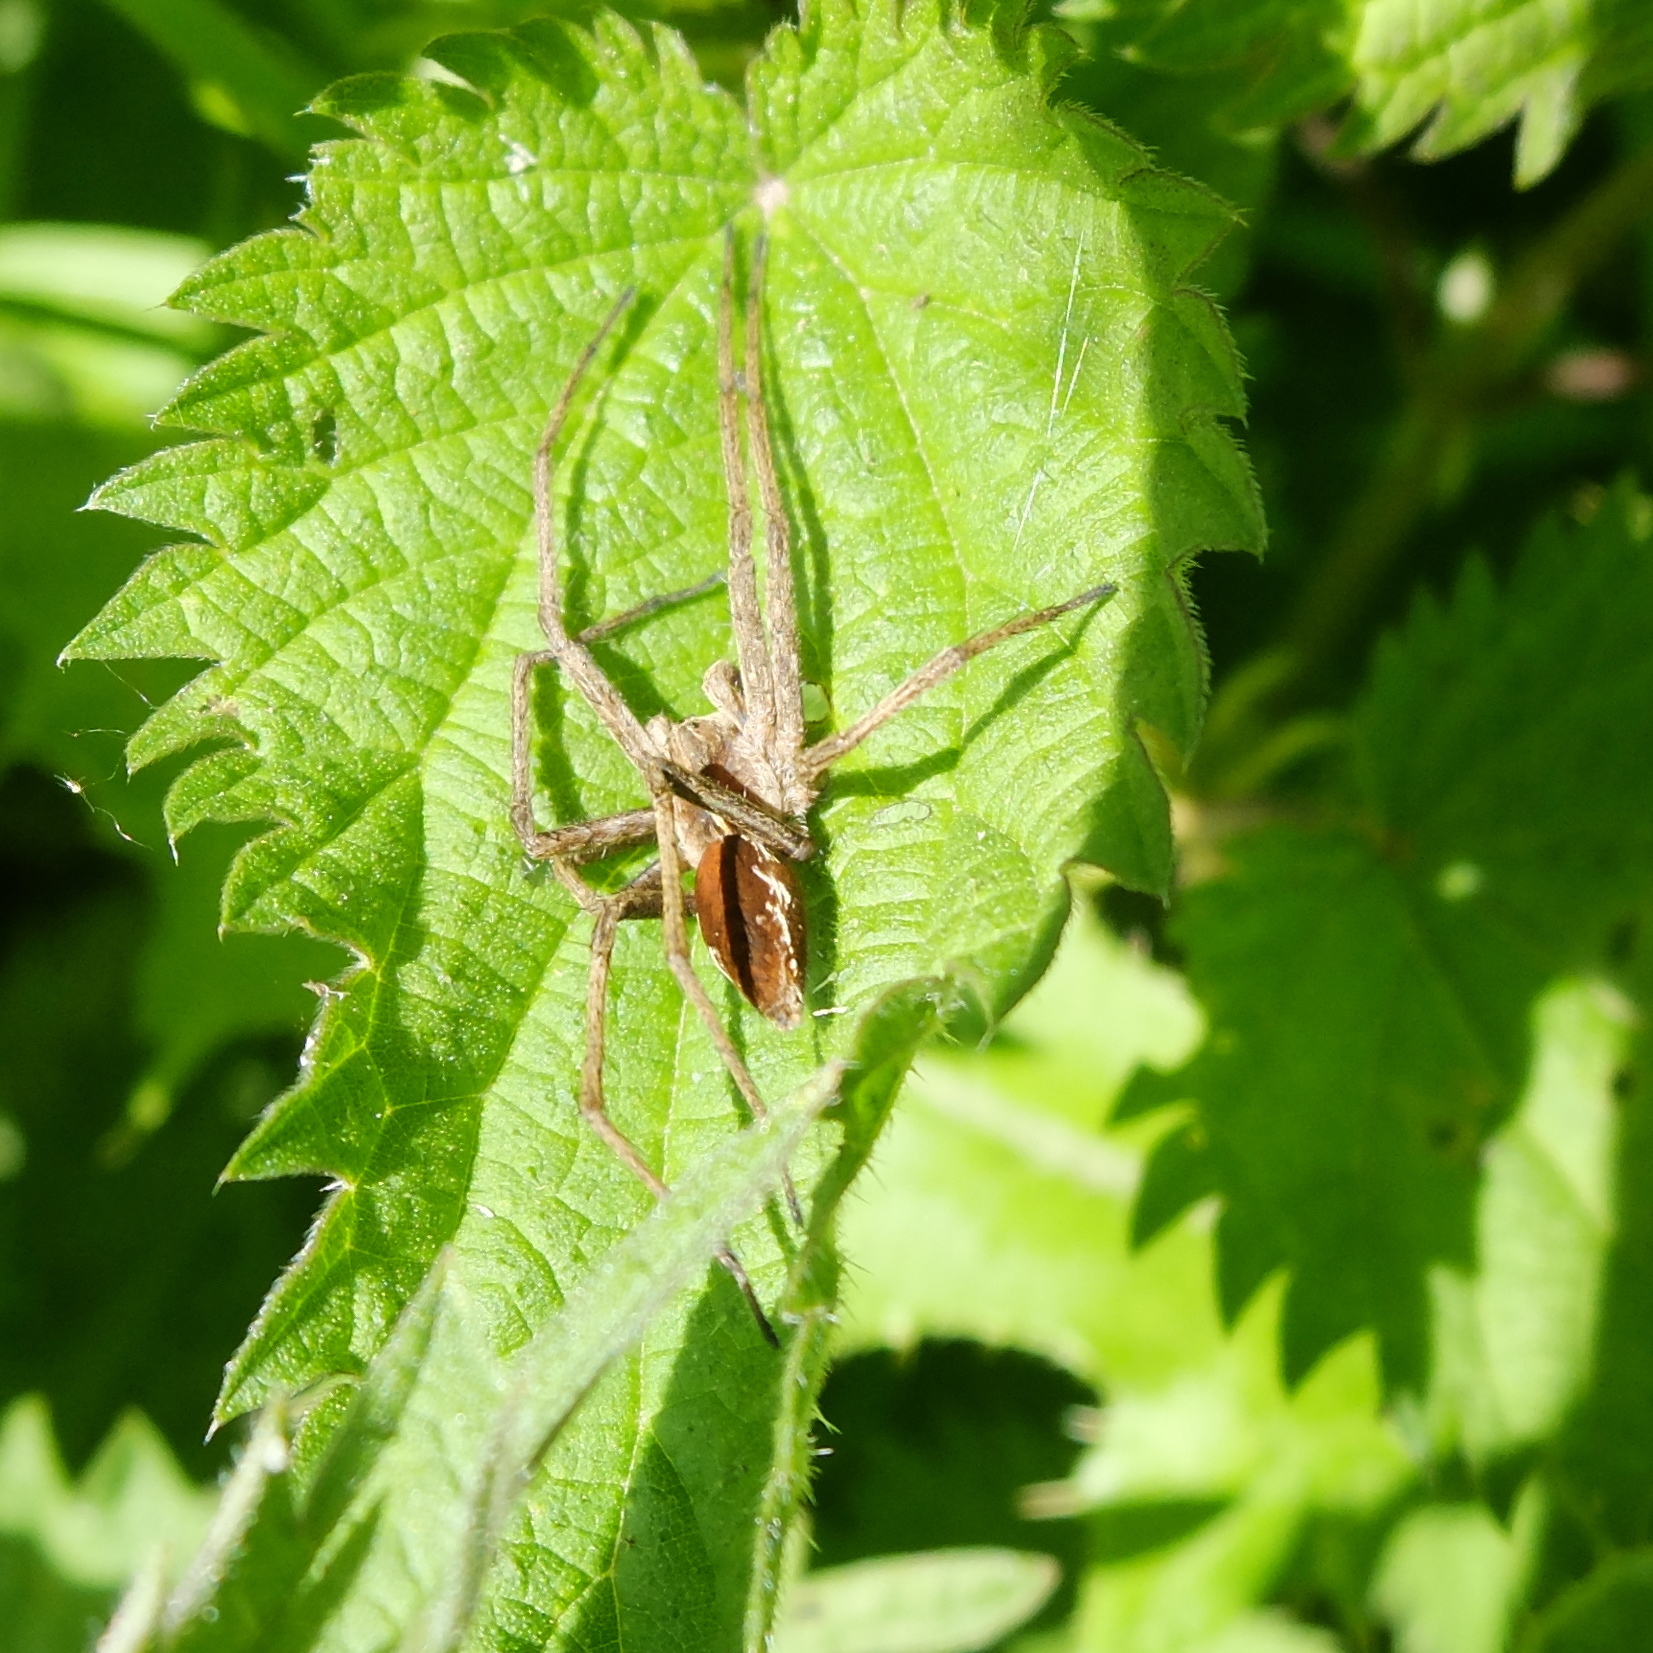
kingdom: Animalia
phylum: Arthropoda
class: Arachnida
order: Araneae
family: Pisauridae
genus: Pisaura
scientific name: Pisaura mirabilis
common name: Tent spider
